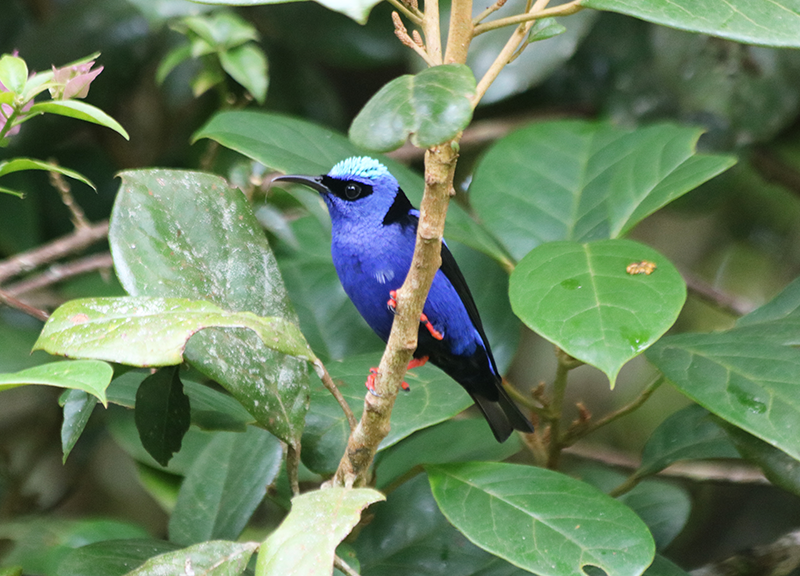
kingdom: Animalia
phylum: Chordata
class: Aves
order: Passeriformes
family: Thraupidae
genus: Cyanerpes
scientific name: Cyanerpes cyaneus
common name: Red-legged honeycreeper
